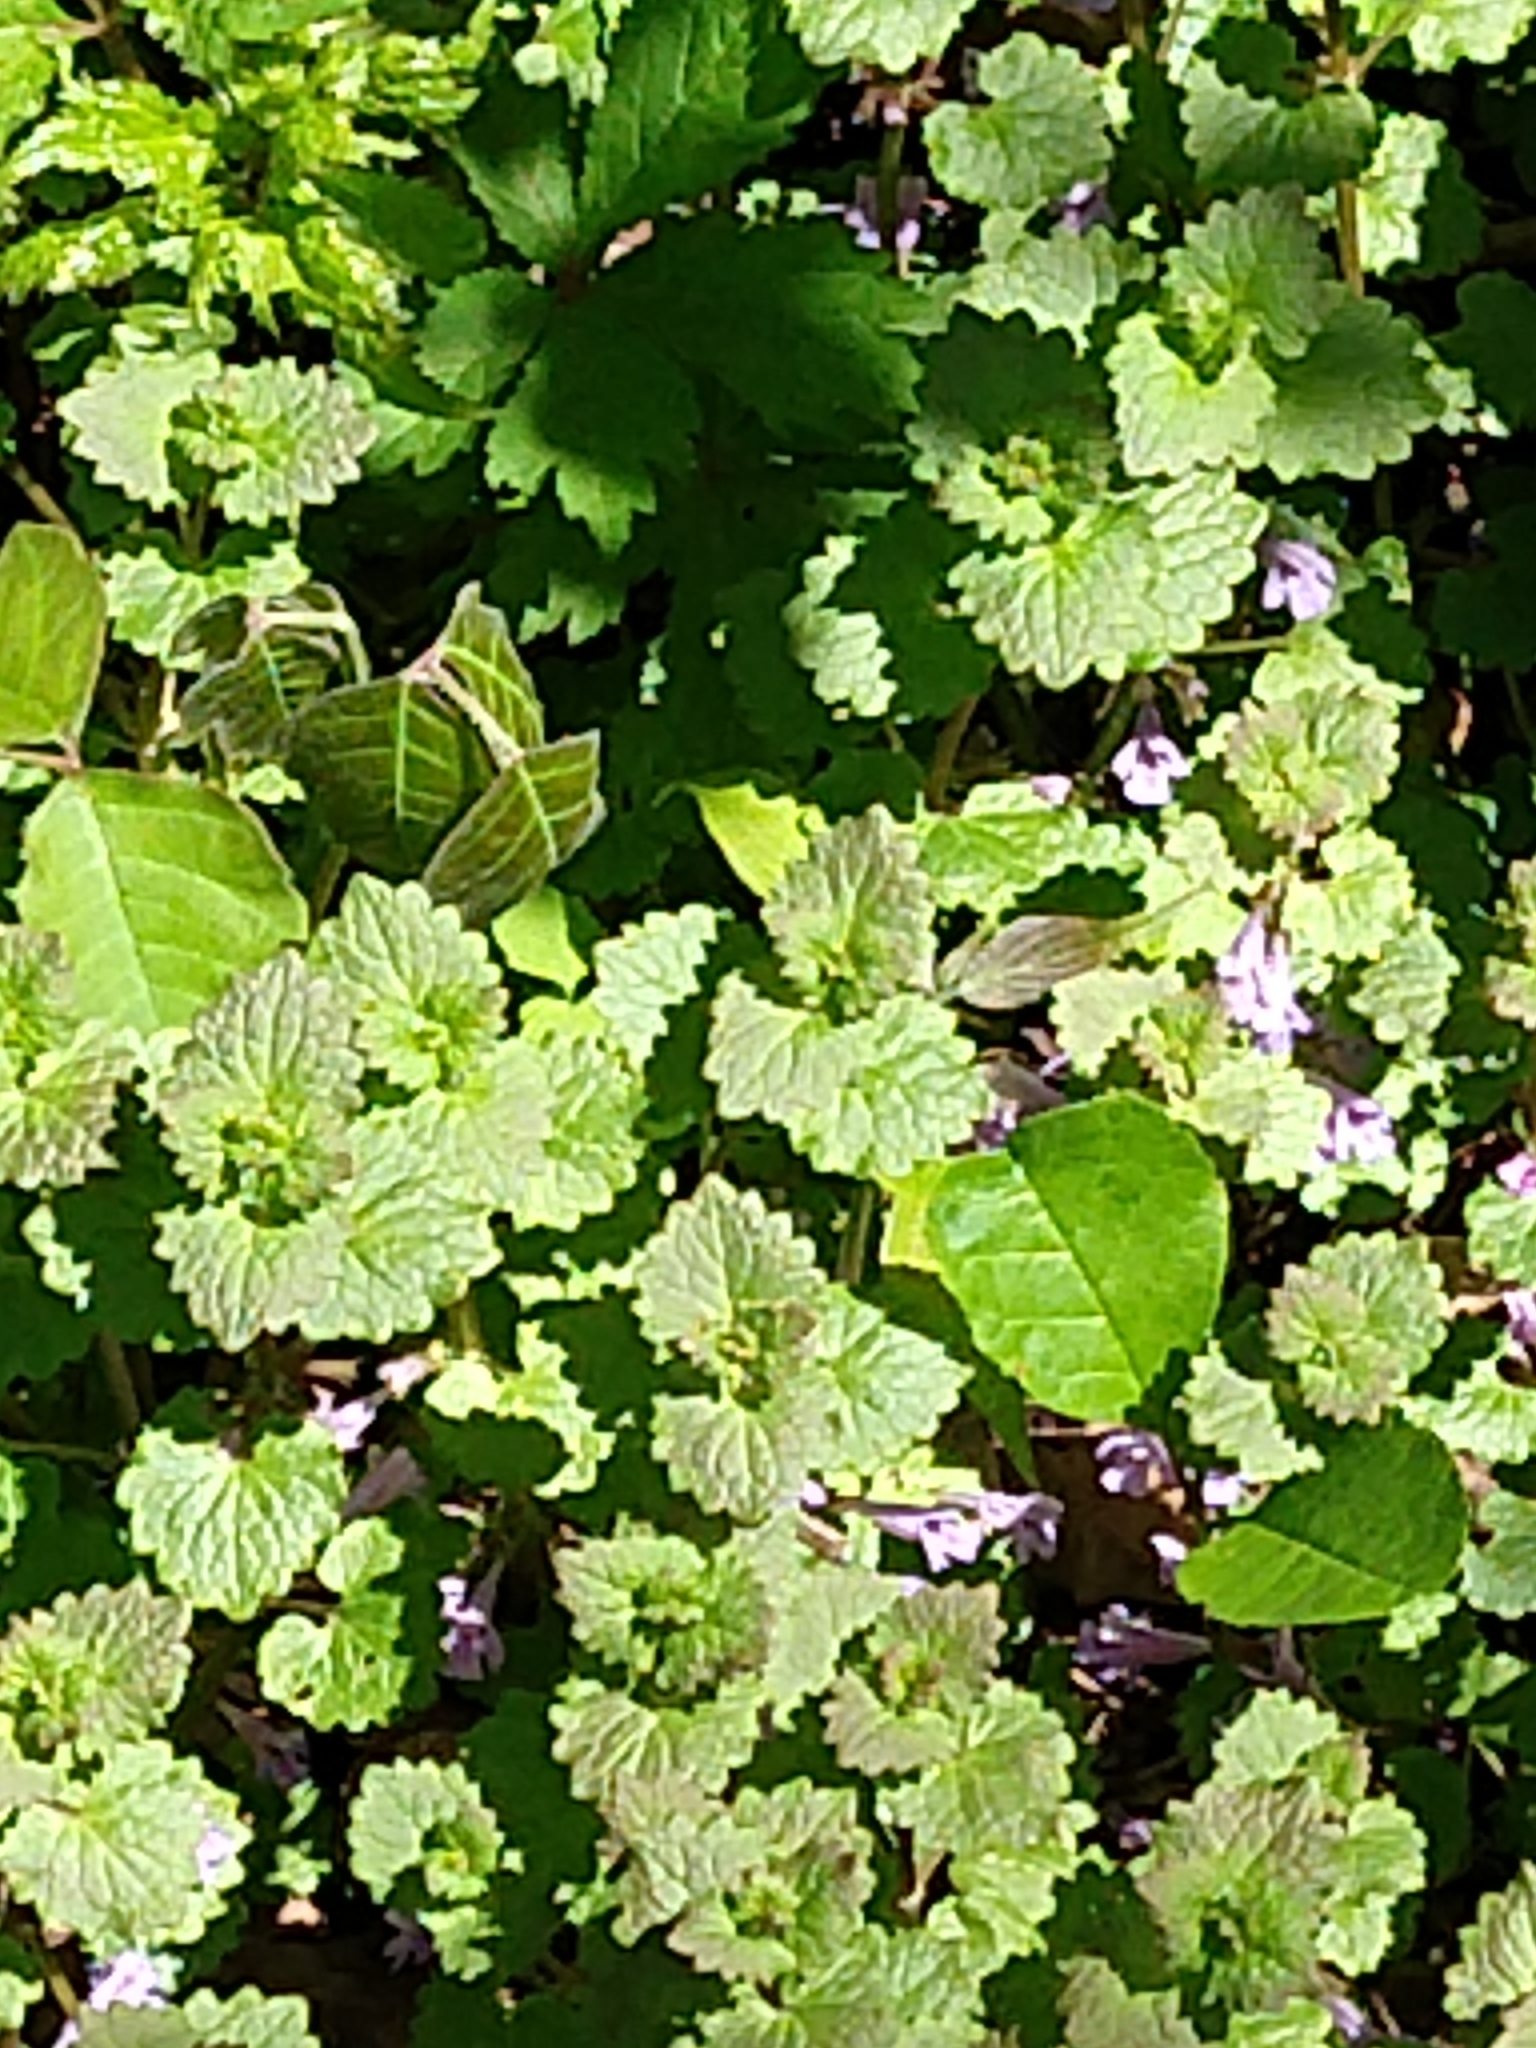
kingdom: Plantae
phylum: Tracheophyta
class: Magnoliopsida
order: Lamiales
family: Lamiaceae
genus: Glechoma
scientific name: Glechoma hederacea
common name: Ground ivy
